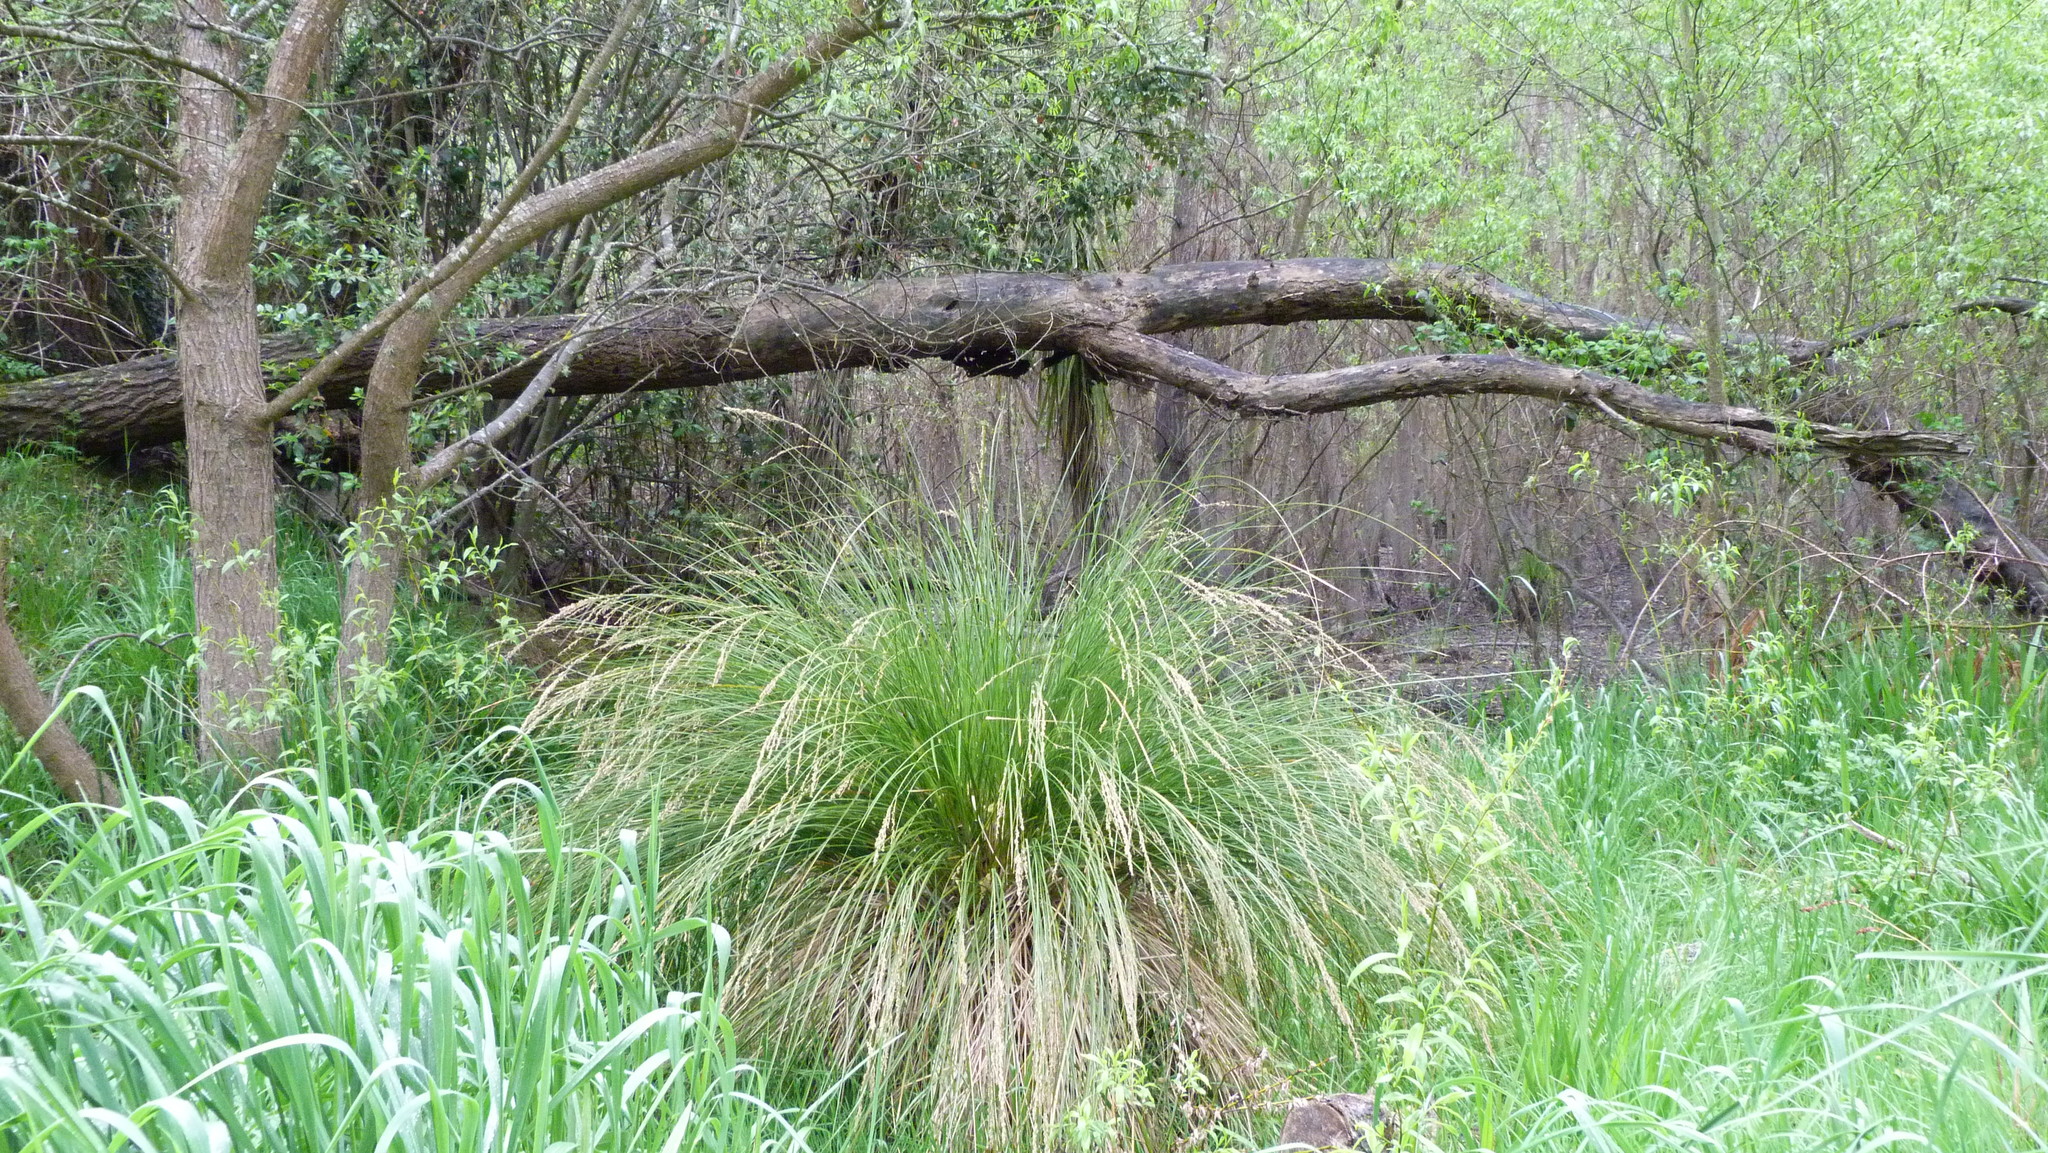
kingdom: Plantae
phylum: Tracheophyta
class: Liliopsida
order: Poales
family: Cyperaceae
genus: Carex
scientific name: Carex secta
